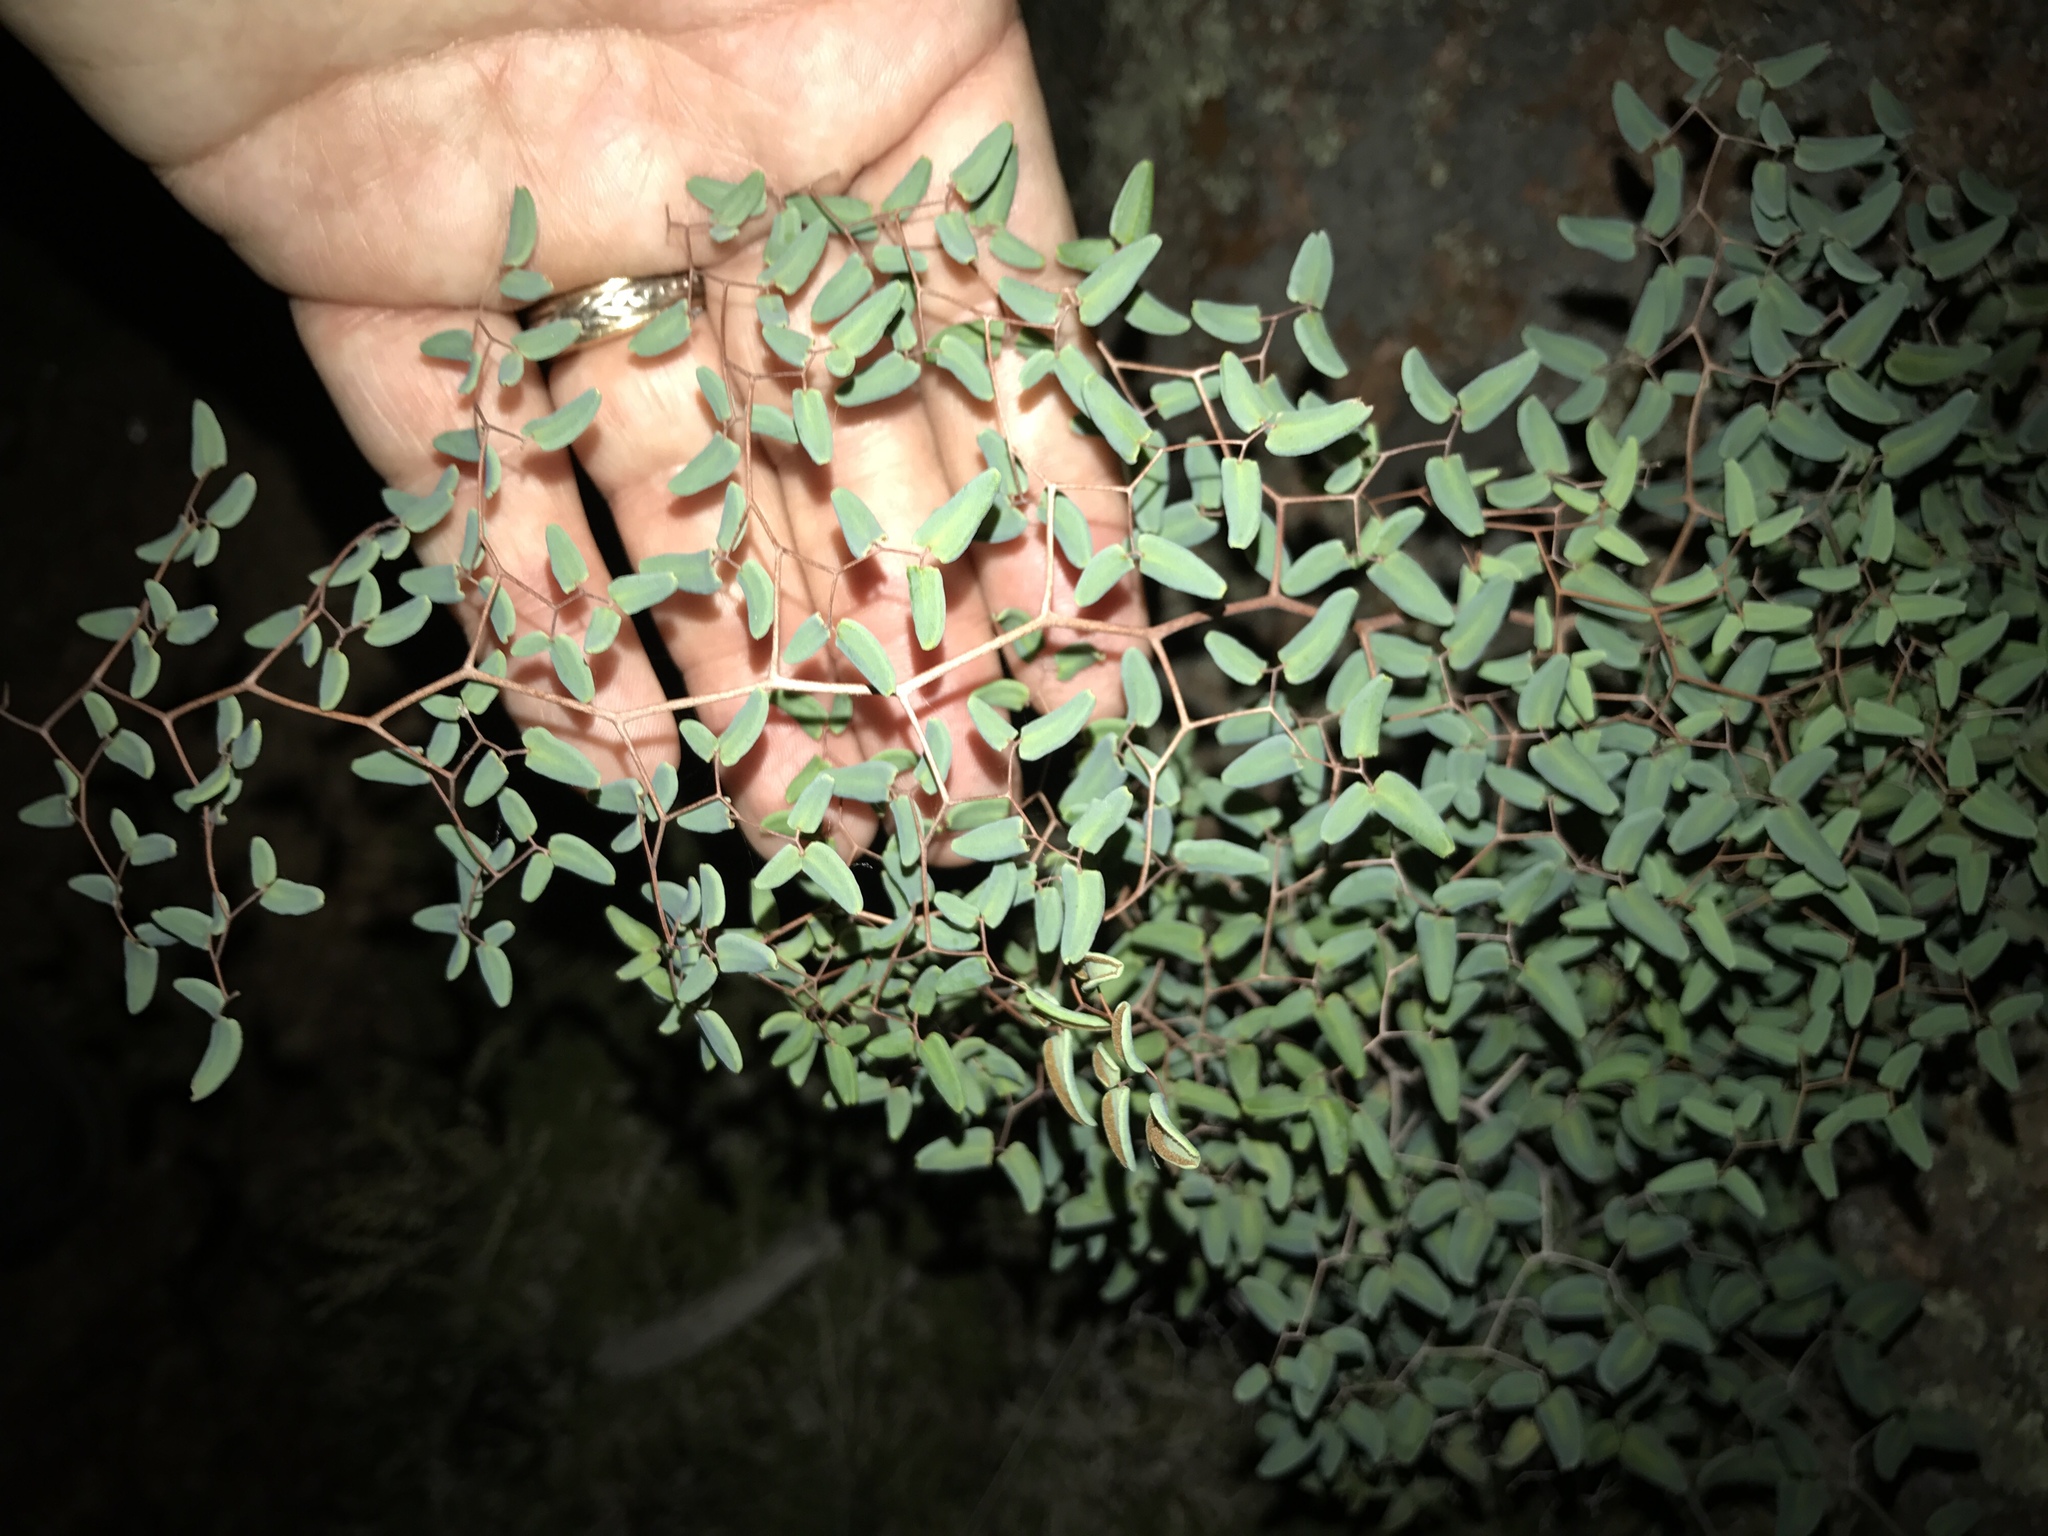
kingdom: Plantae
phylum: Tracheophyta
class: Polypodiopsida
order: Polypodiales
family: Pteridaceae
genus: Pellaea
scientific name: Pellaea ovata
